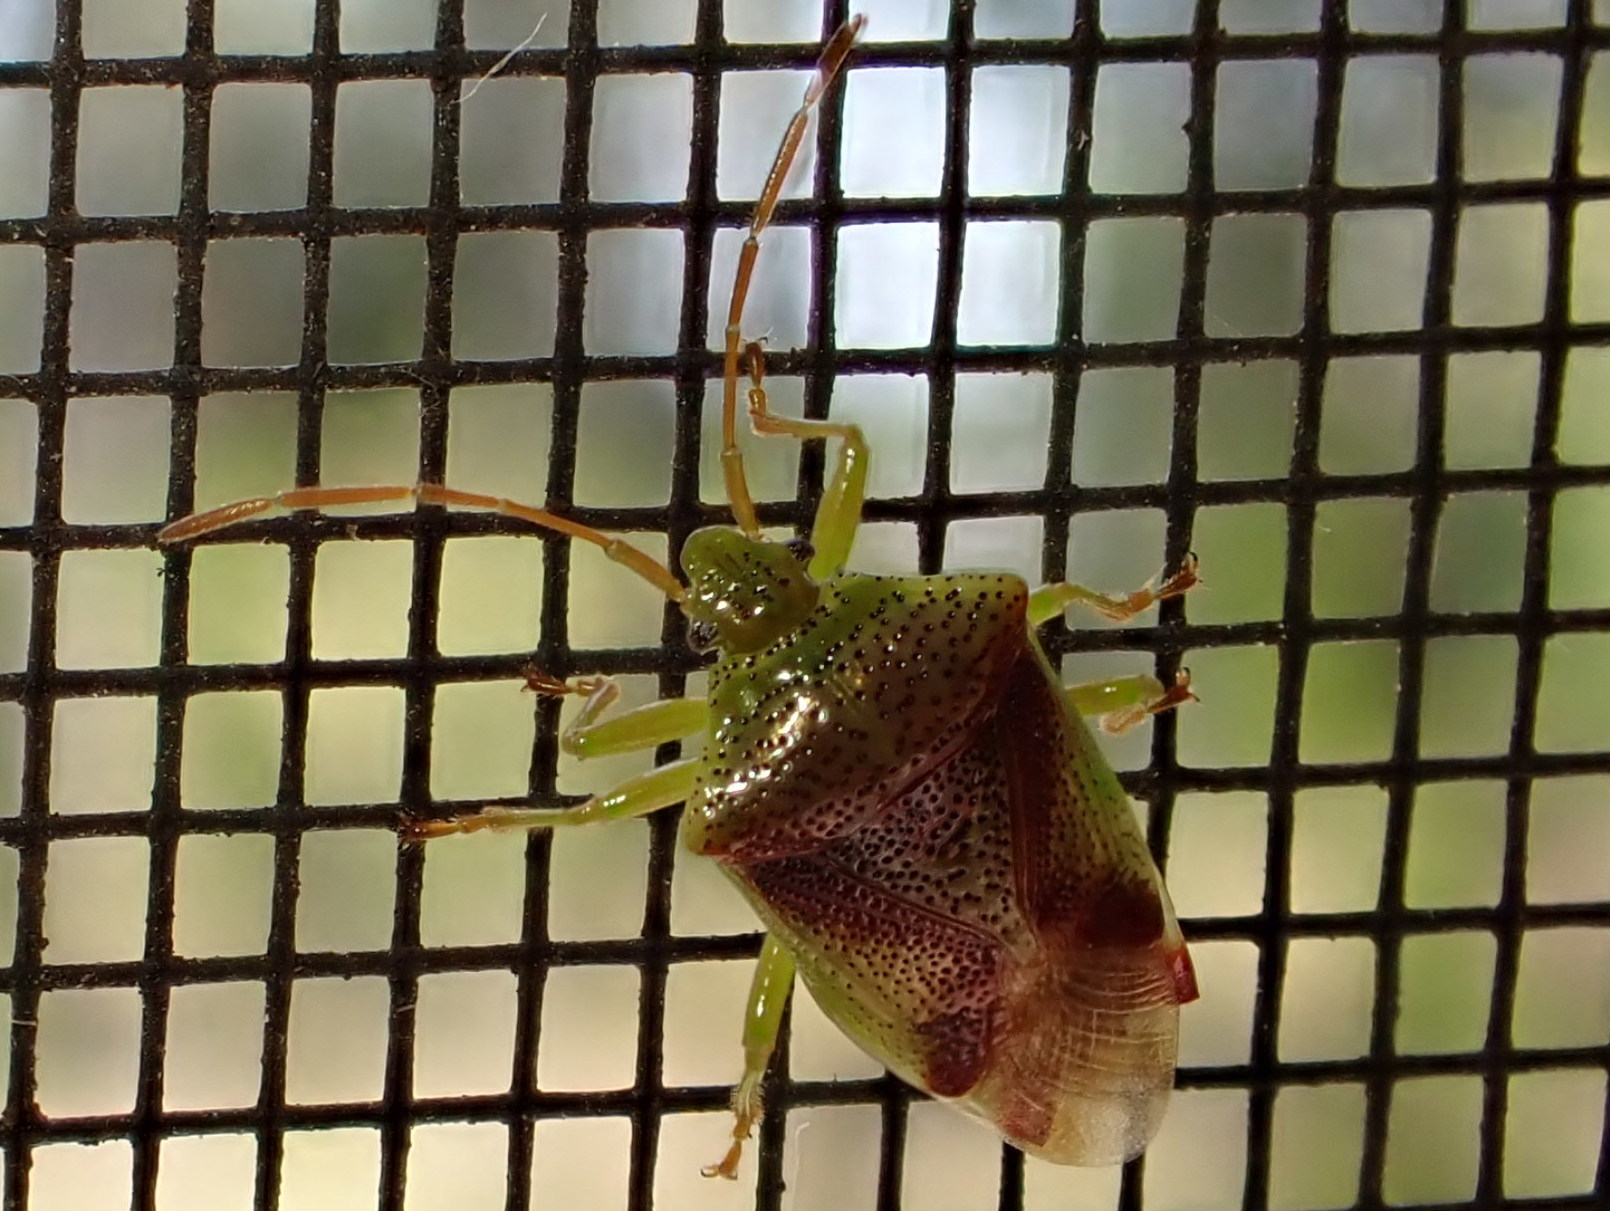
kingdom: Animalia
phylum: Arthropoda
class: Insecta
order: Hemiptera
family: Acanthosomatidae
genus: Elasmostethus
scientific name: Elasmostethus cruciatus
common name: Red-cross shield bug
